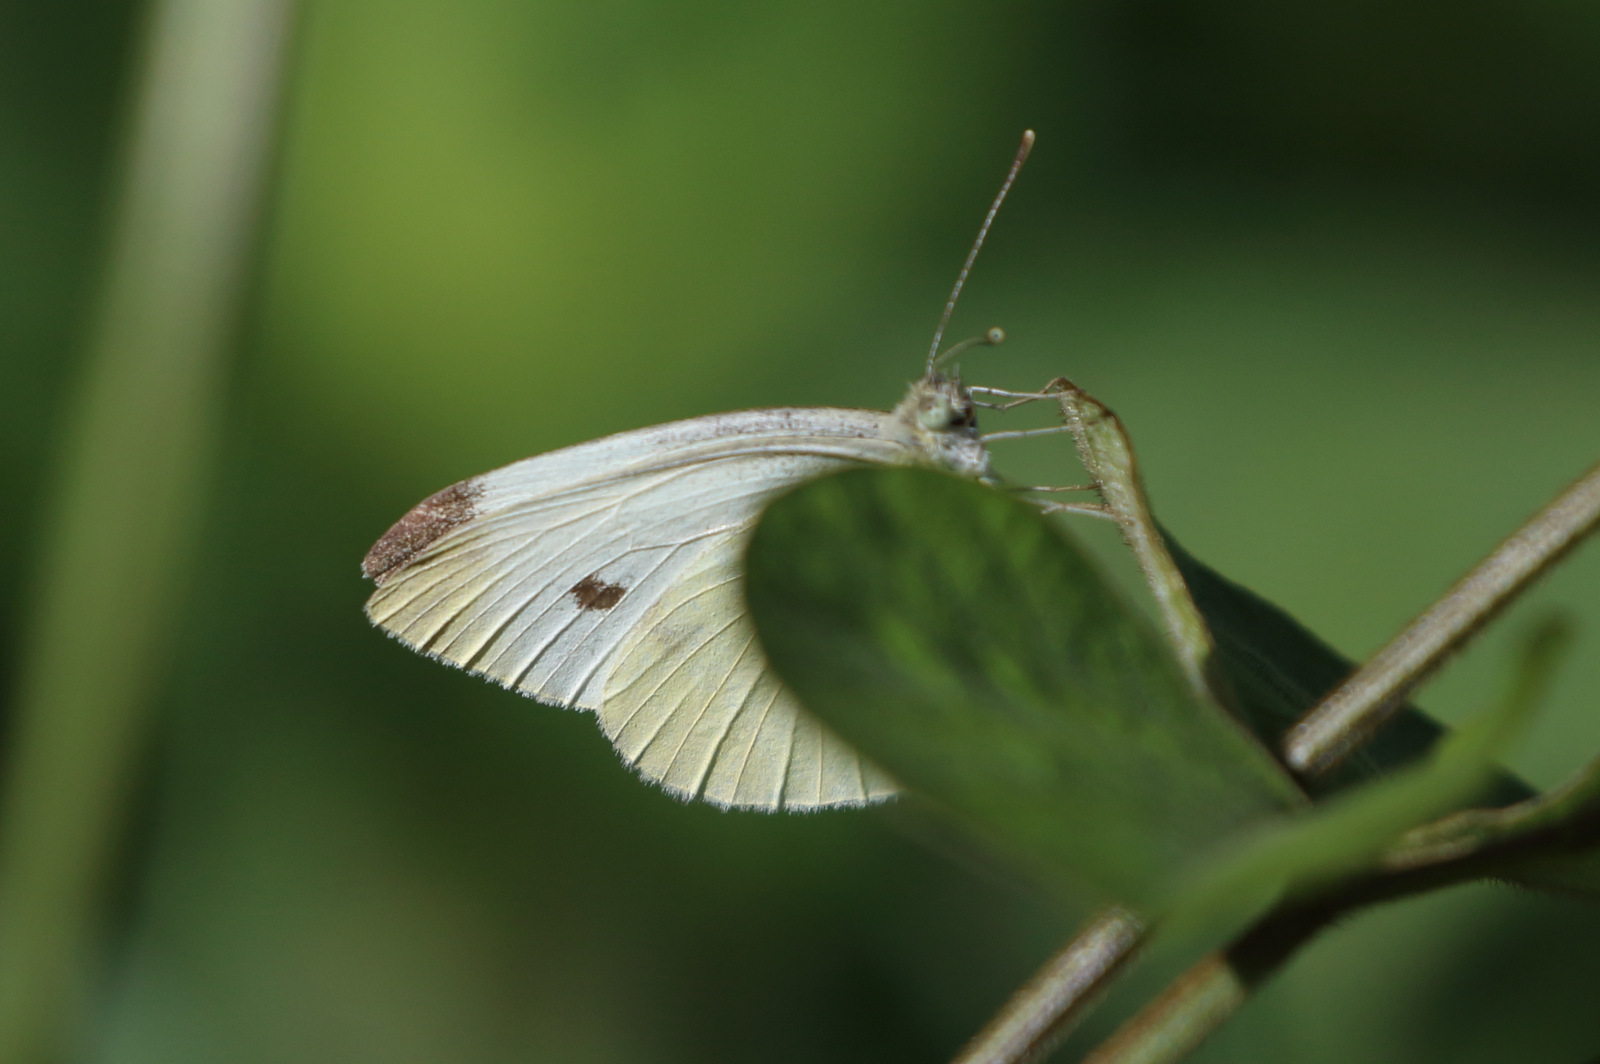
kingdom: Animalia
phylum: Arthropoda
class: Insecta
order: Lepidoptera
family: Pieridae
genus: Pieris
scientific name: Pieris rapae
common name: Small white
